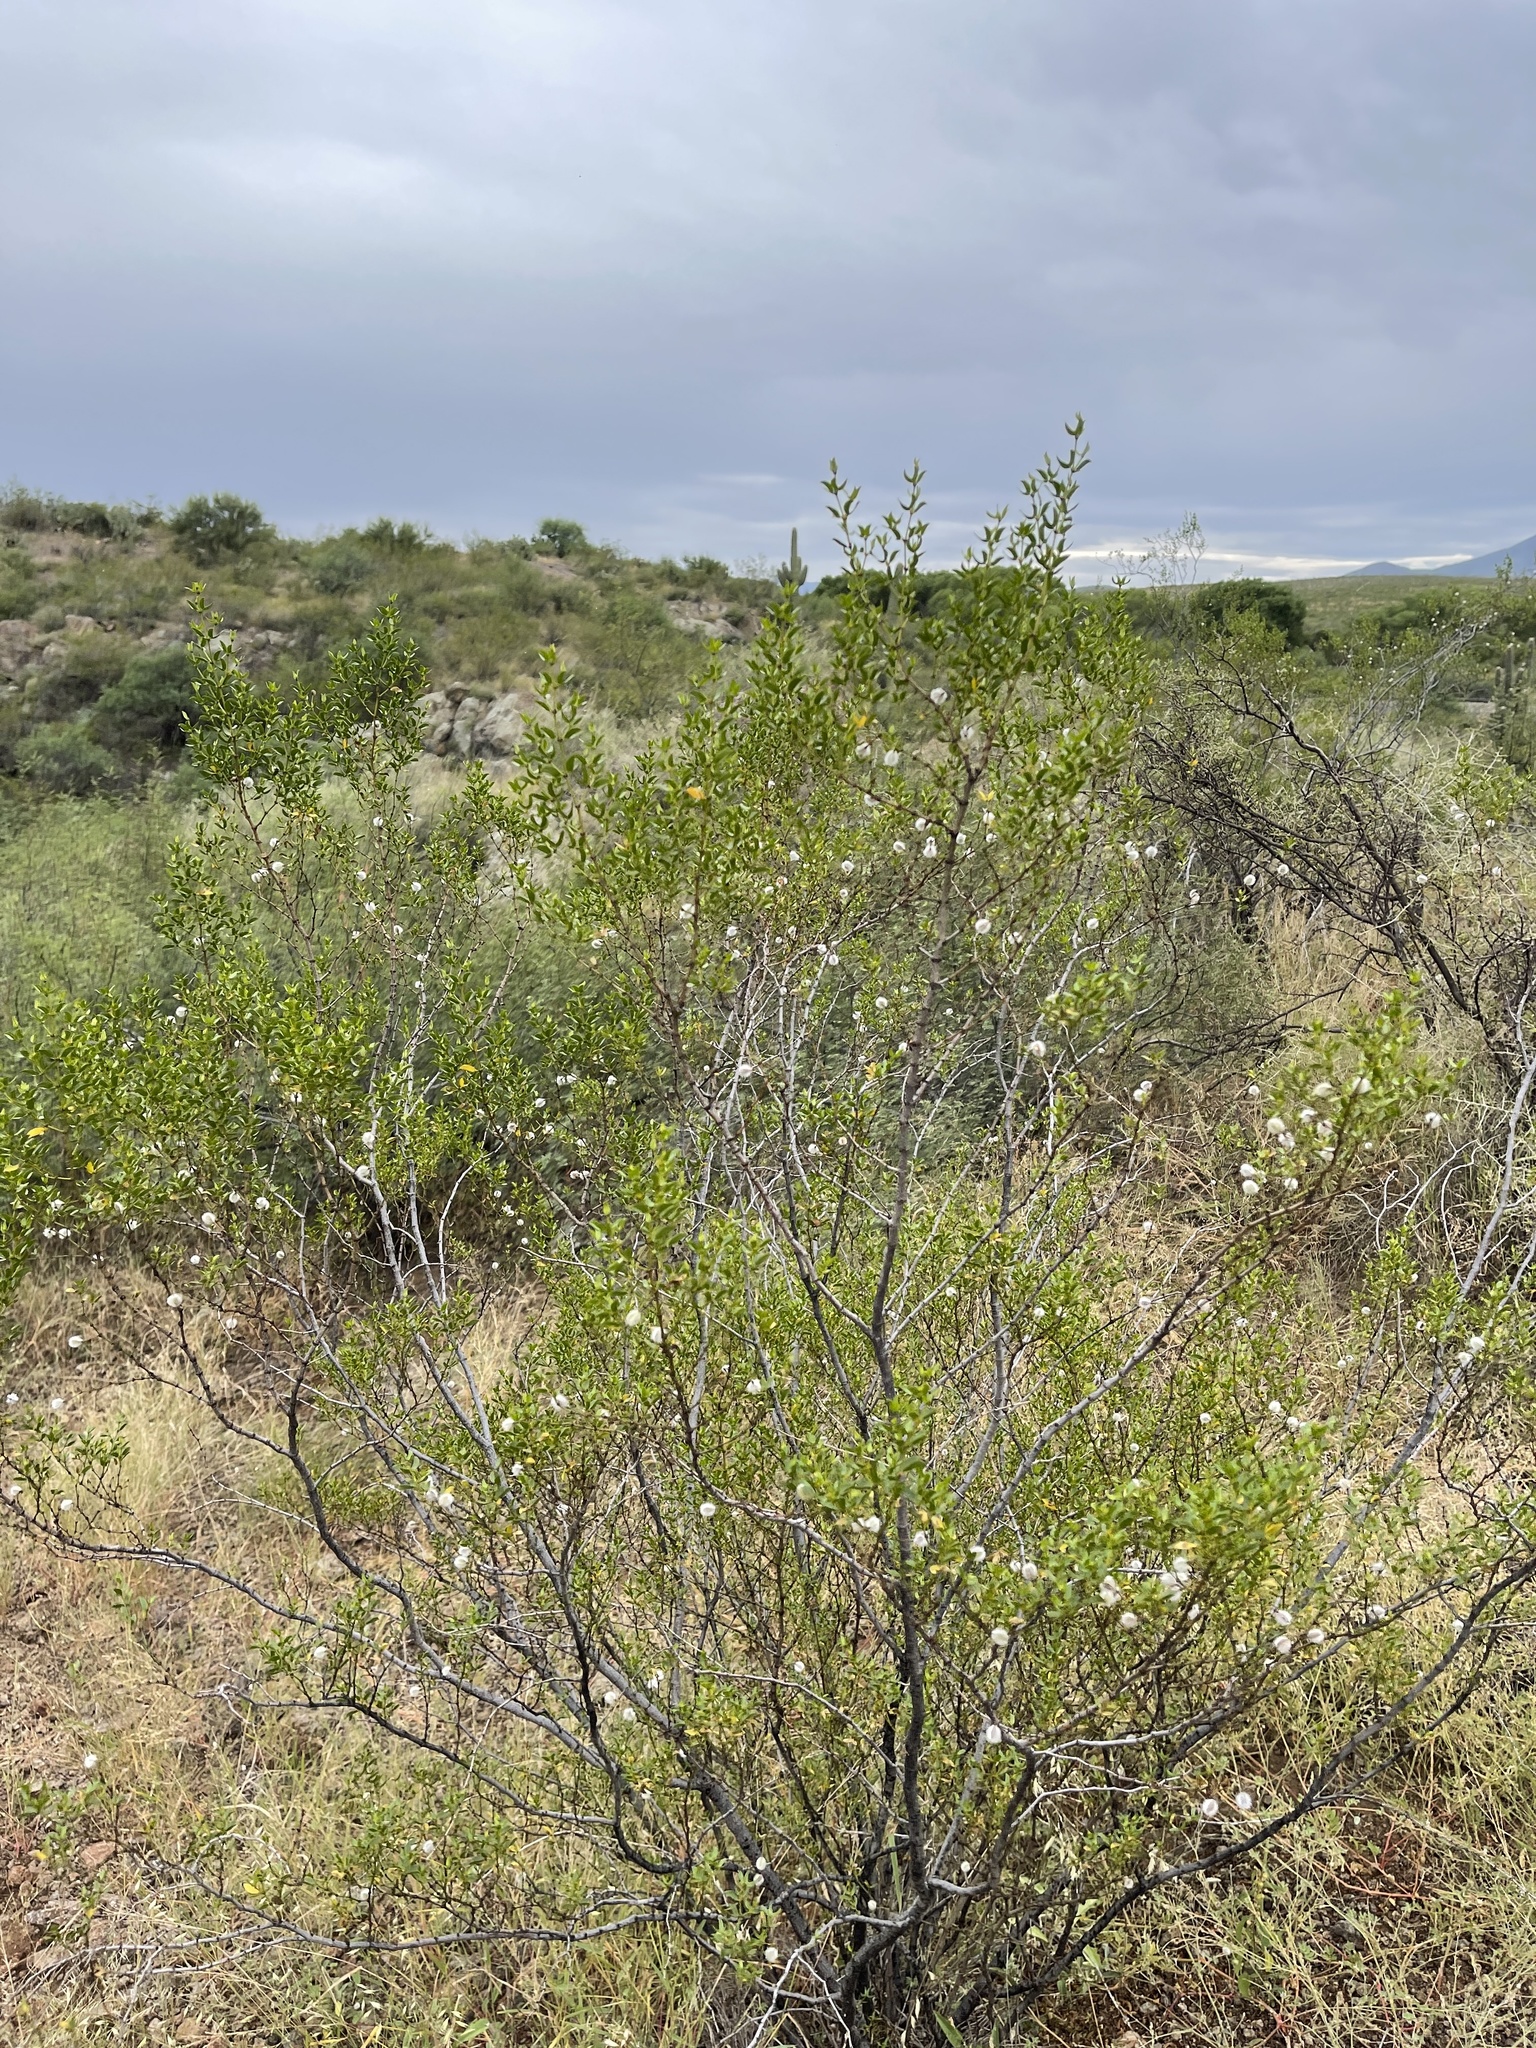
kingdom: Plantae
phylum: Tracheophyta
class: Magnoliopsida
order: Zygophyllales
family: Zygophyllaceae
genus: Larrea
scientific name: Larrea tridentata
